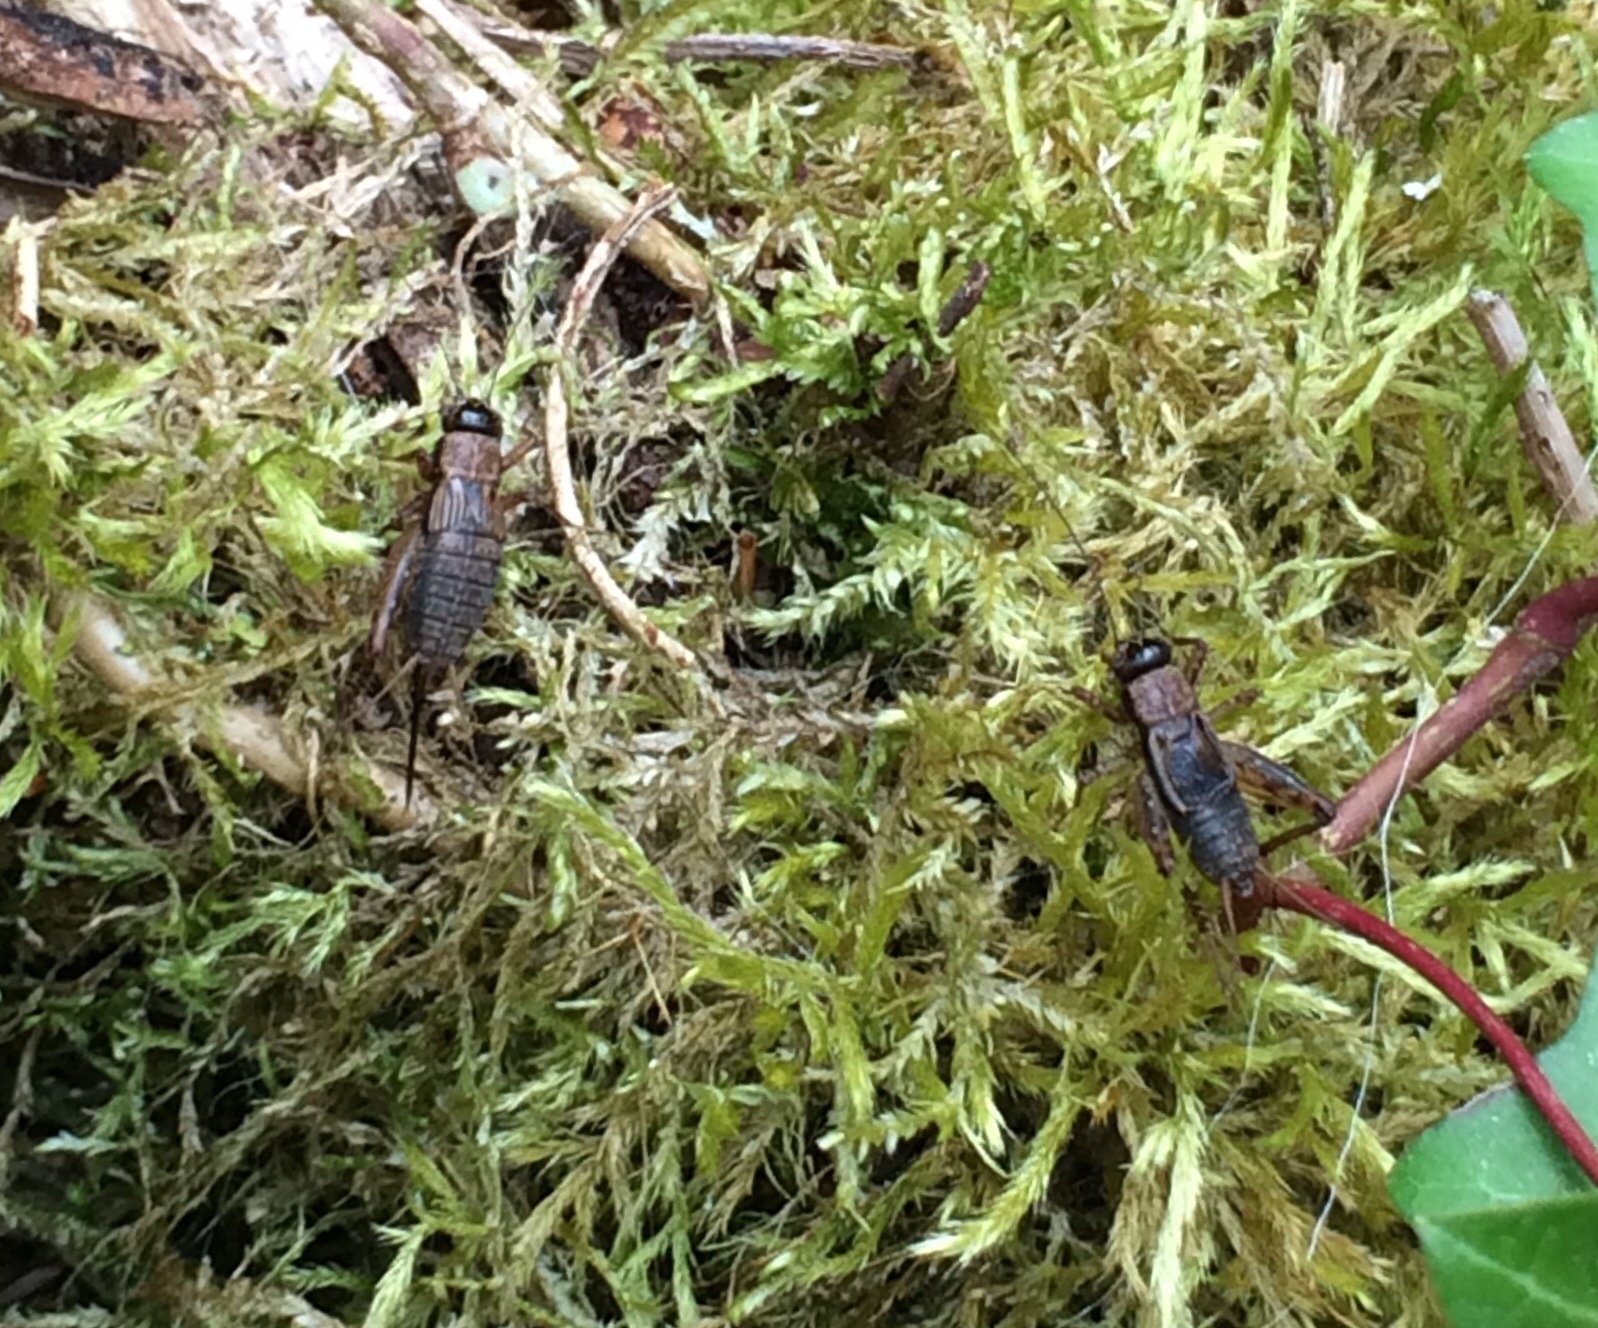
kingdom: Animalia
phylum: Arthropoda
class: Insecta
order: Orthoptera
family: Trigonidiidae
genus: Nemobius
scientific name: Nemobius sylvestris
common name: Wood-cricket
